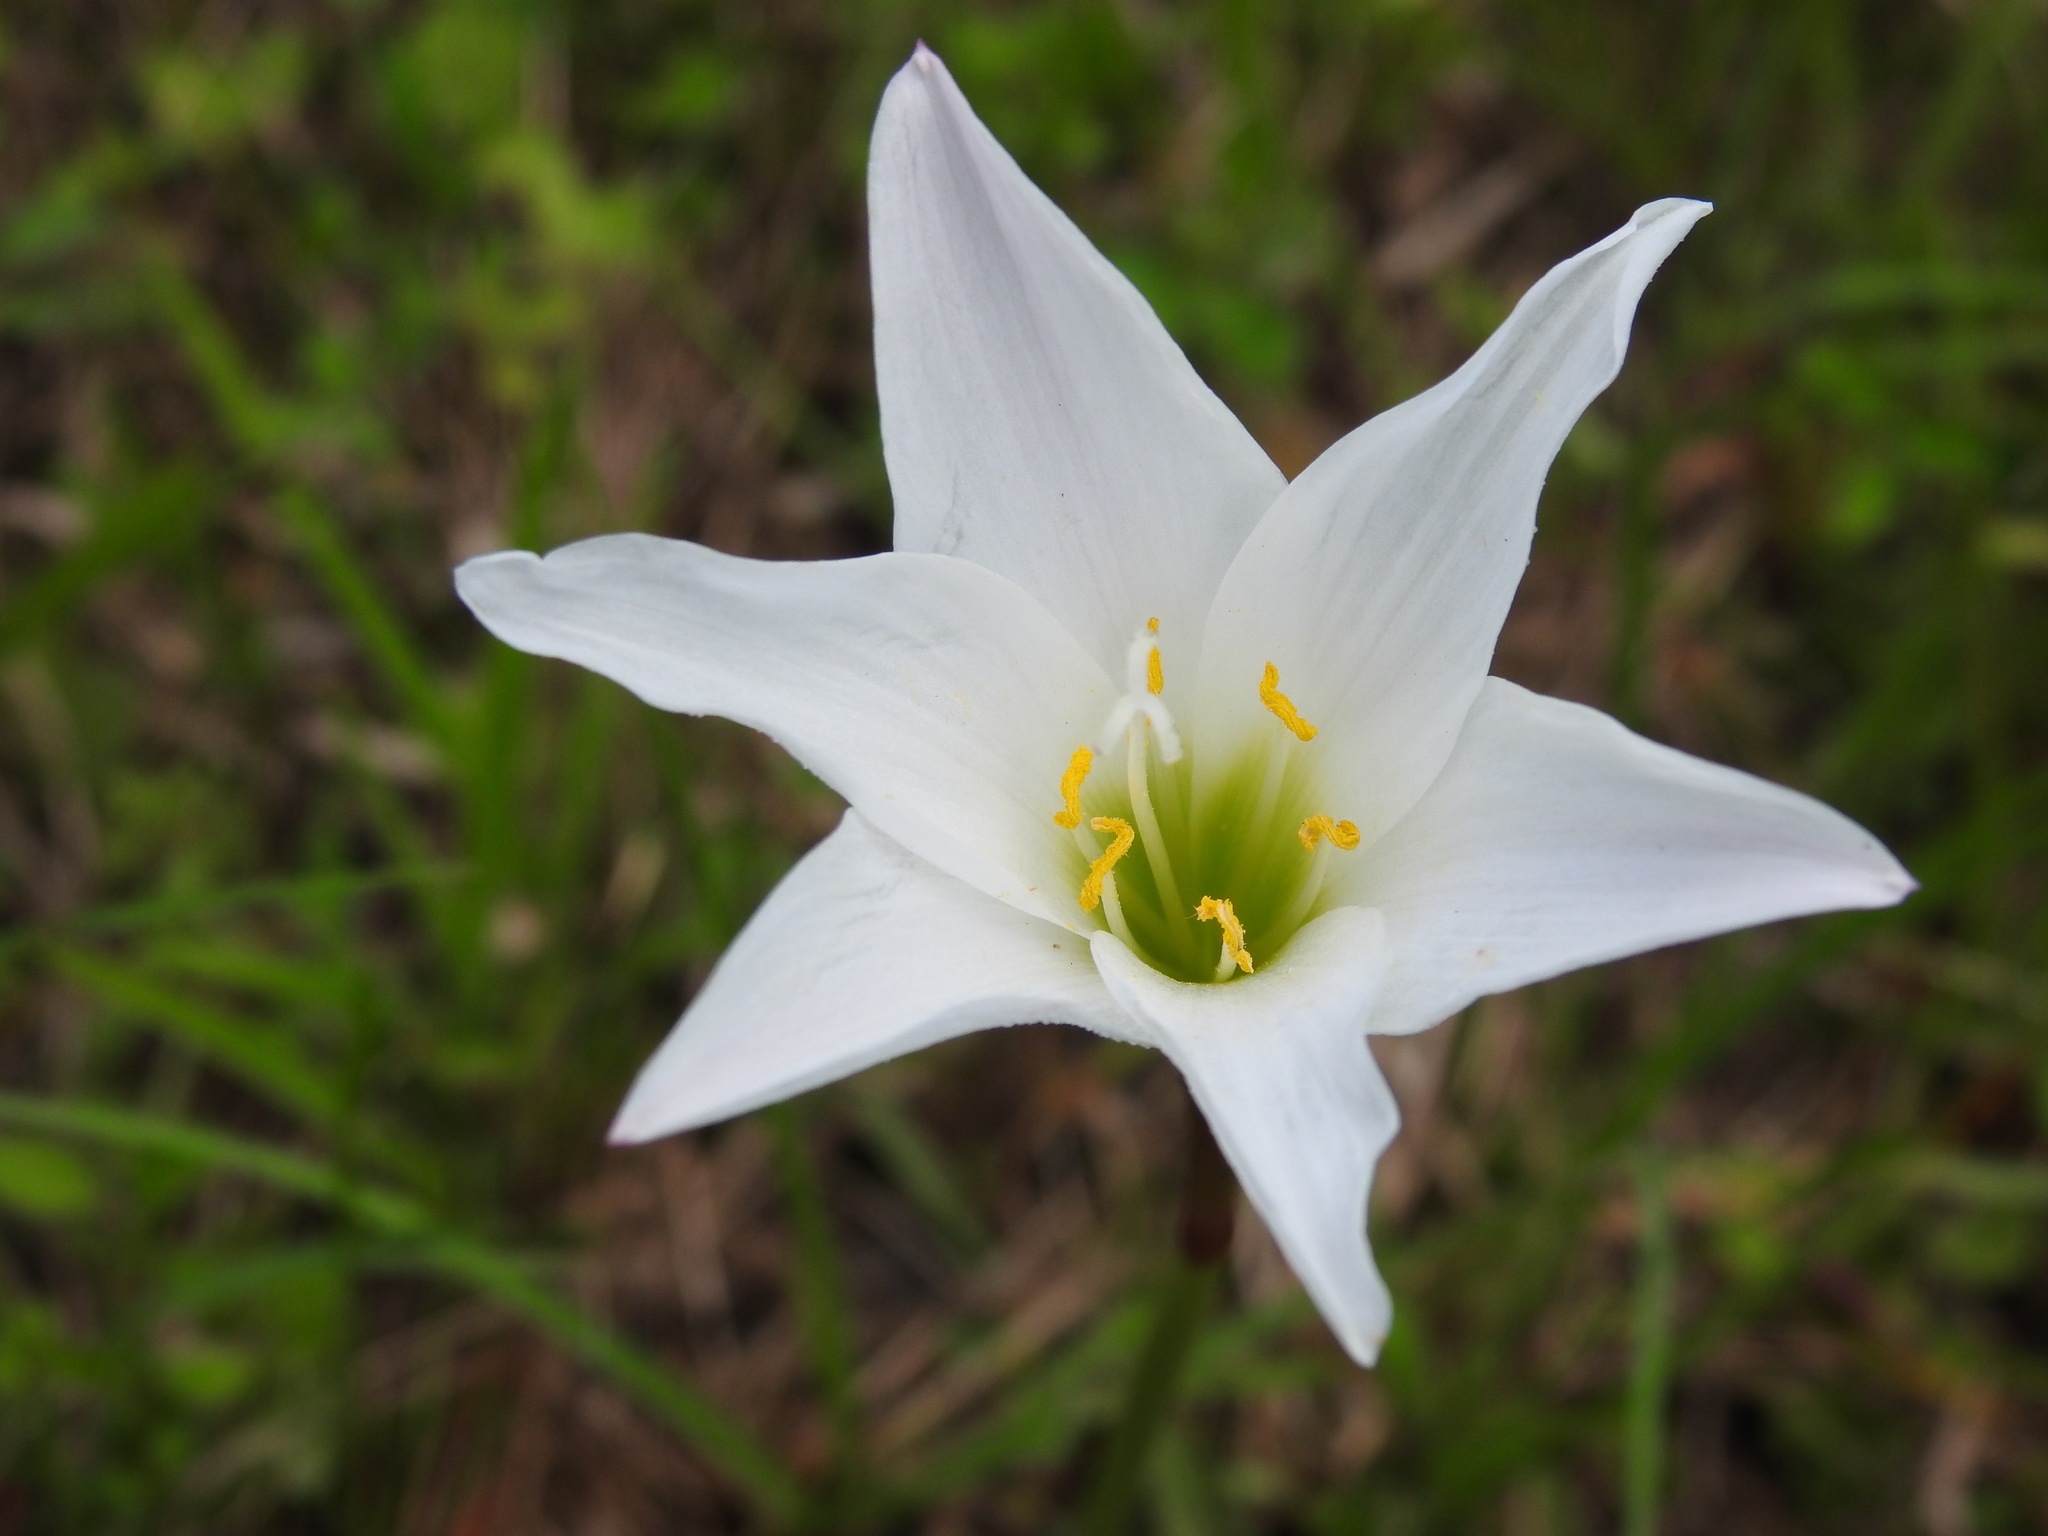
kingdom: Plantae
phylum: Tracheophyta
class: Liliopsida
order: Asparagales
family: Amaryllidaceae
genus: Zephyranthes
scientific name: Zephyranthes atamasco
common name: Atamasco lily
